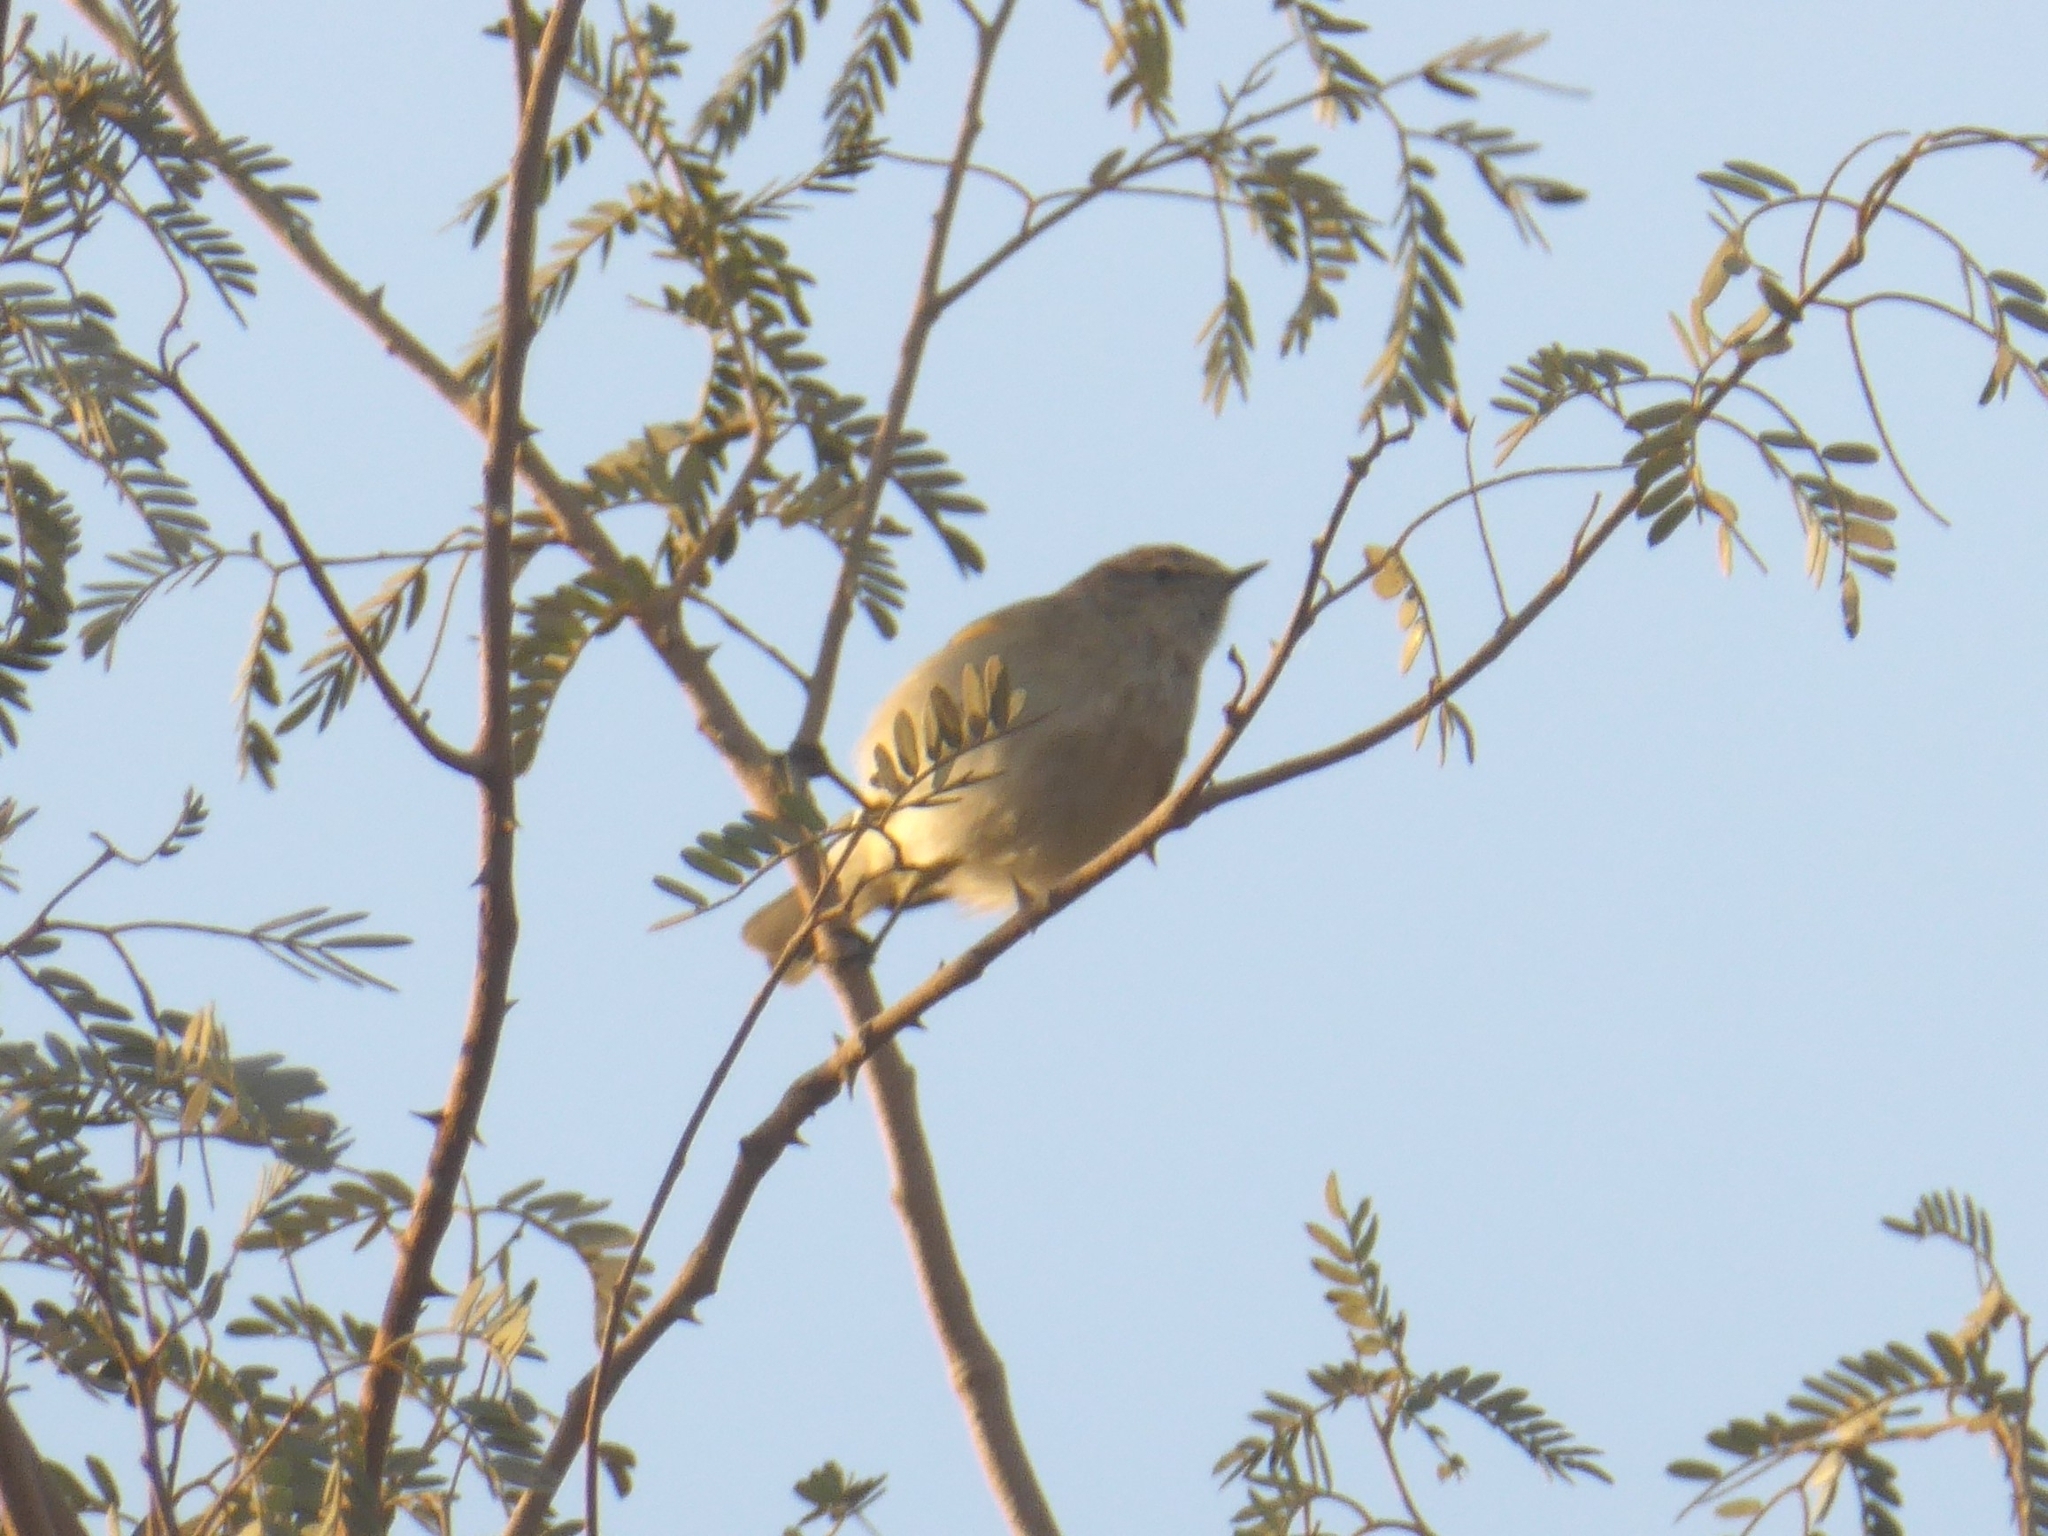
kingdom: Animalia
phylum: Chordata
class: Aves
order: Passeriformes
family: Phylloscopidae
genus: Phylloscopus
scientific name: Phylloscopus collybita
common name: Common chiffchaff
